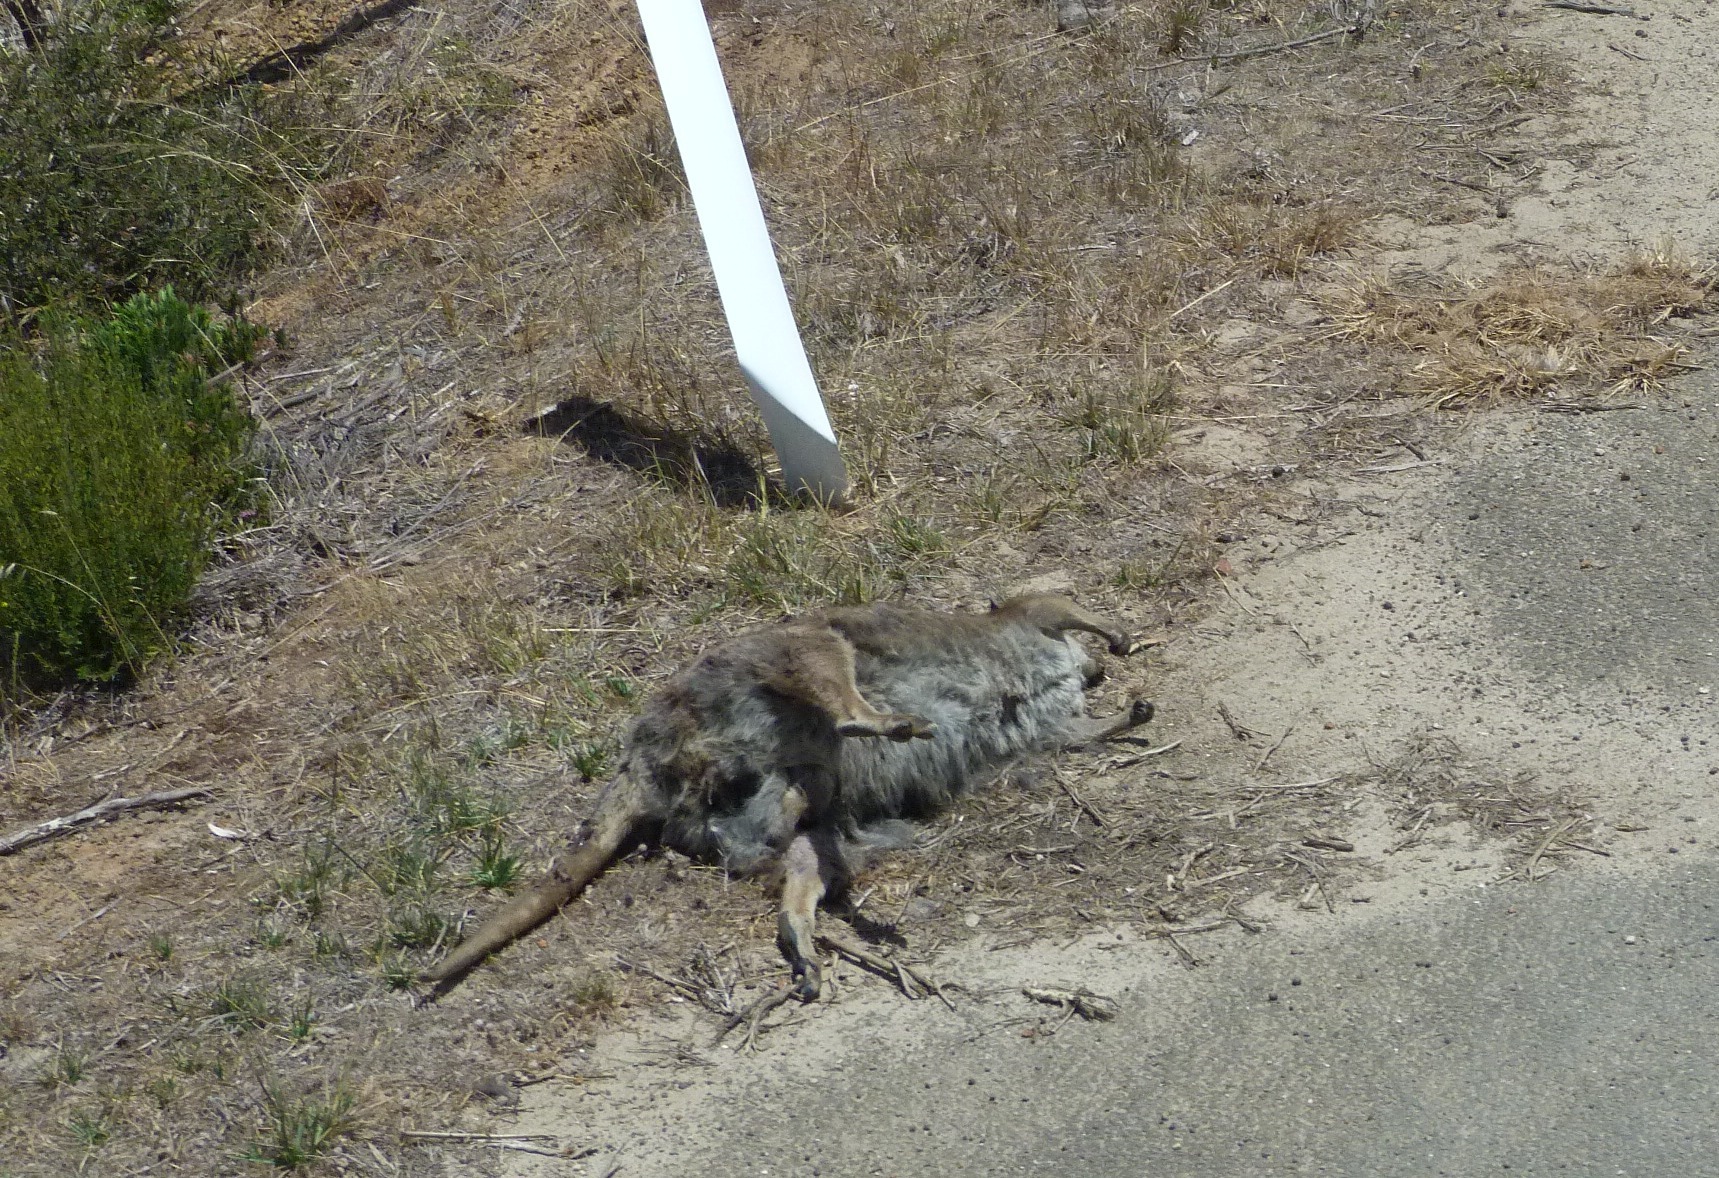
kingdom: Animalia
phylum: Chordata
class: Mammalia
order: Diprotodontia
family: Macropodidae
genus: Macropus
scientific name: Macropus eugenii
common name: Tammar wallaby
